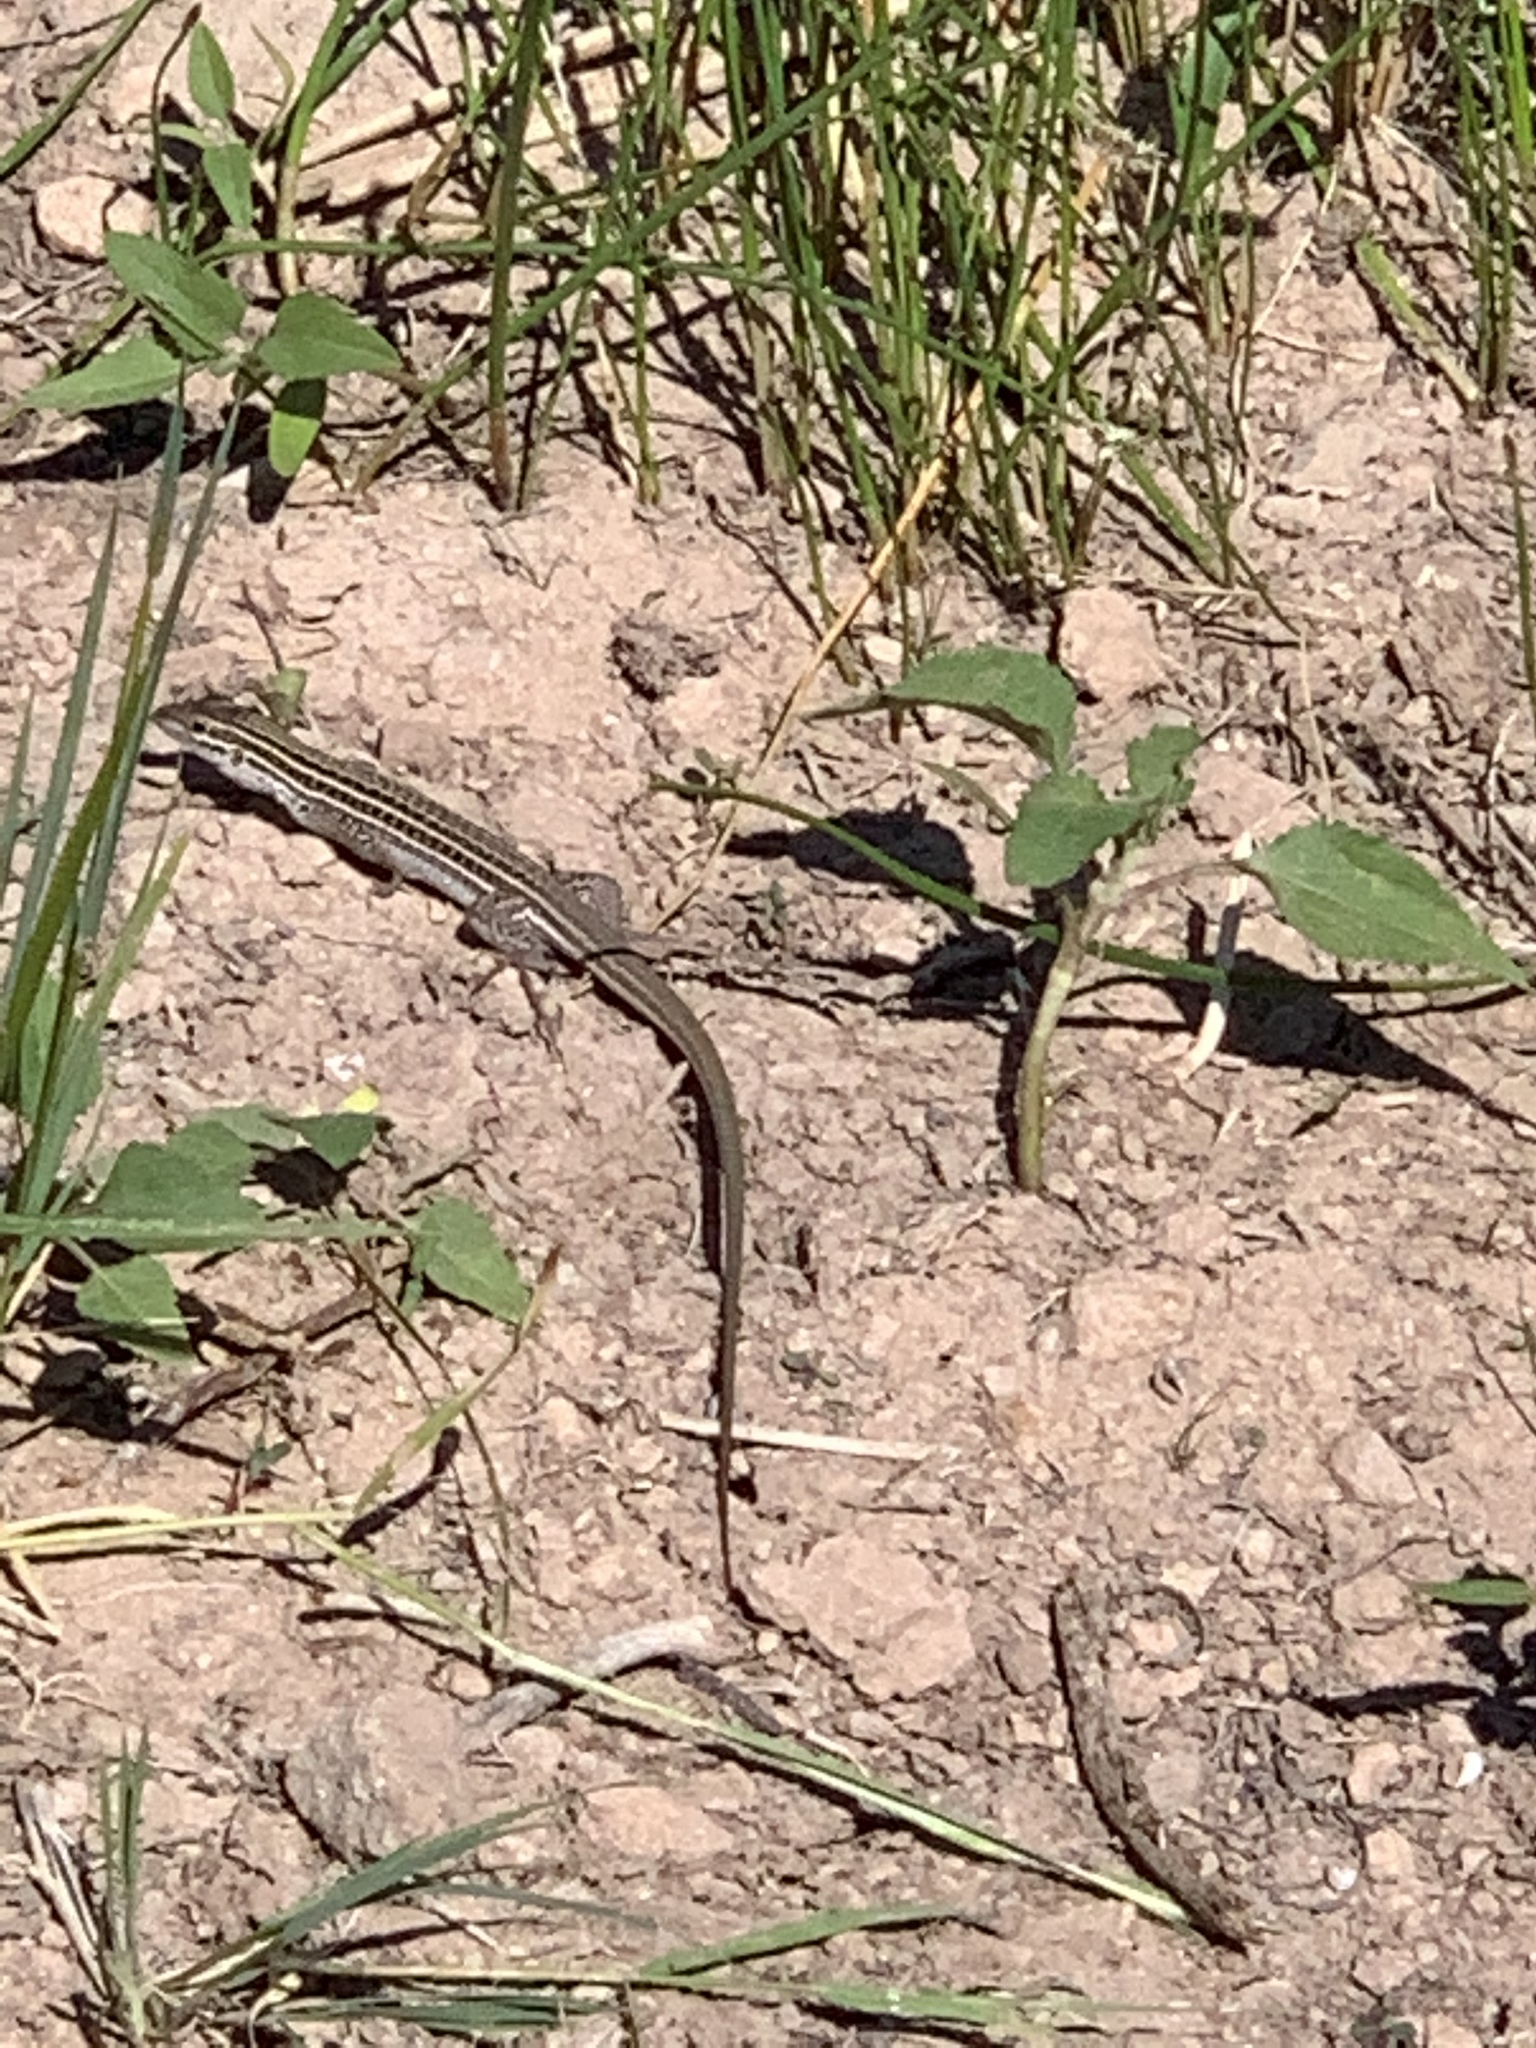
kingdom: Animalia
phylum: Chordata
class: Squamata
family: Teiidae
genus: Aspidoscelis
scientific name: Aspidoscelis neomexicanus
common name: New mexico whiptail
